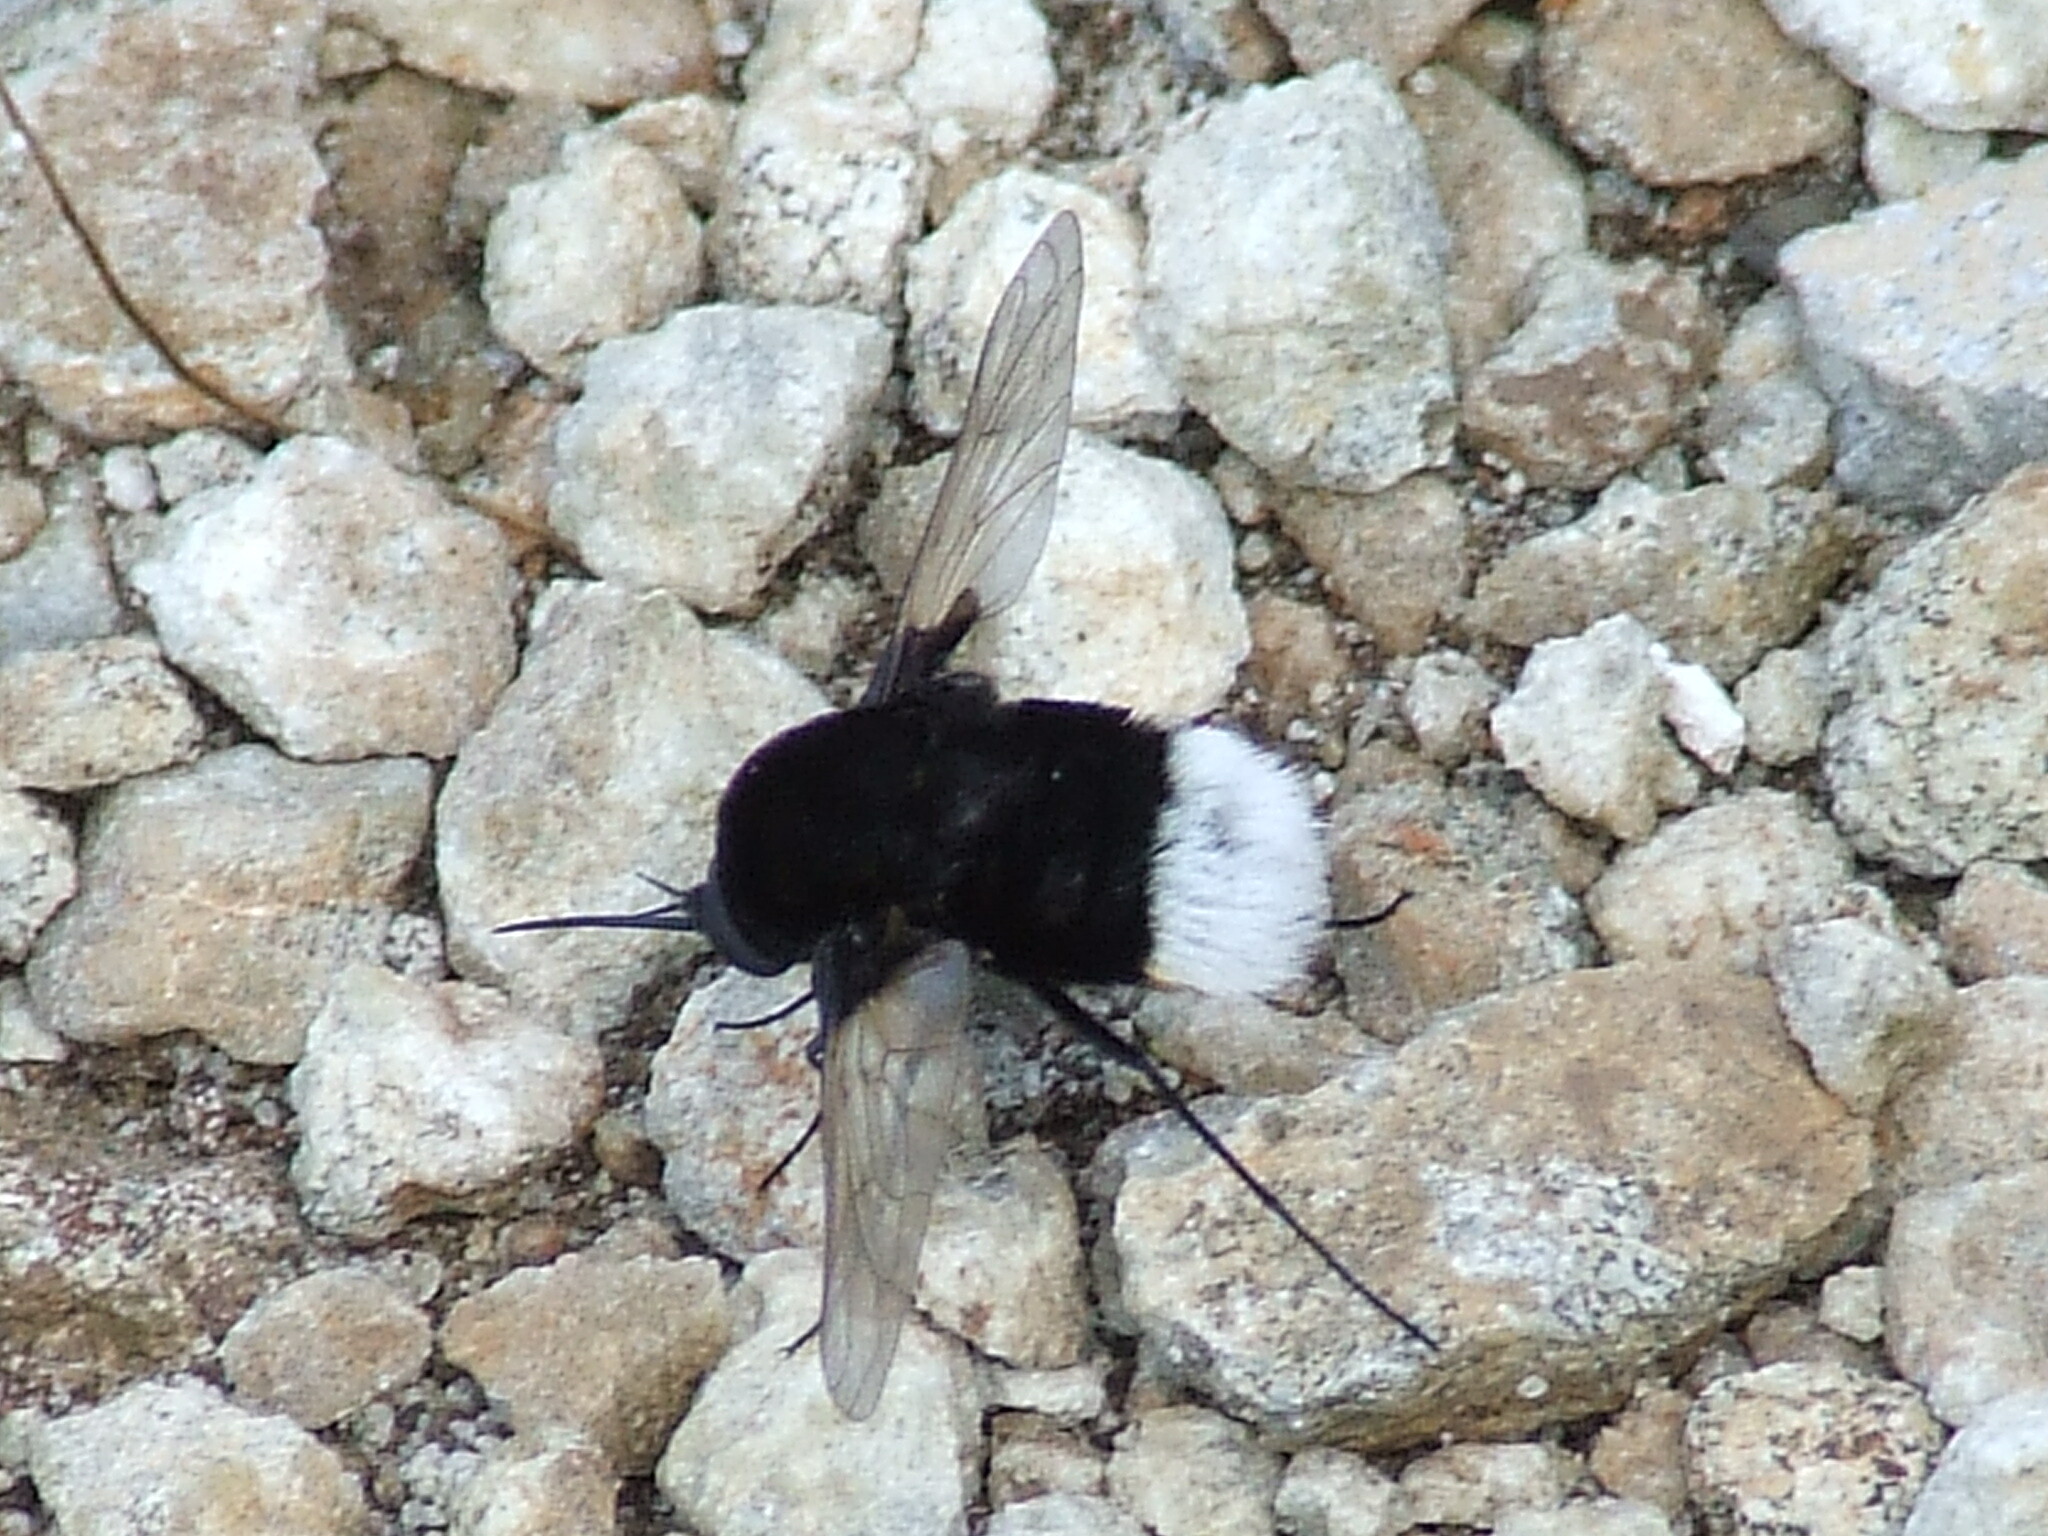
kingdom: Animalia
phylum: Arthropoda
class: Insecta
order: Diptera
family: Bombyliidae
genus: Bombomyia
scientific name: Bombomyia discoidea
